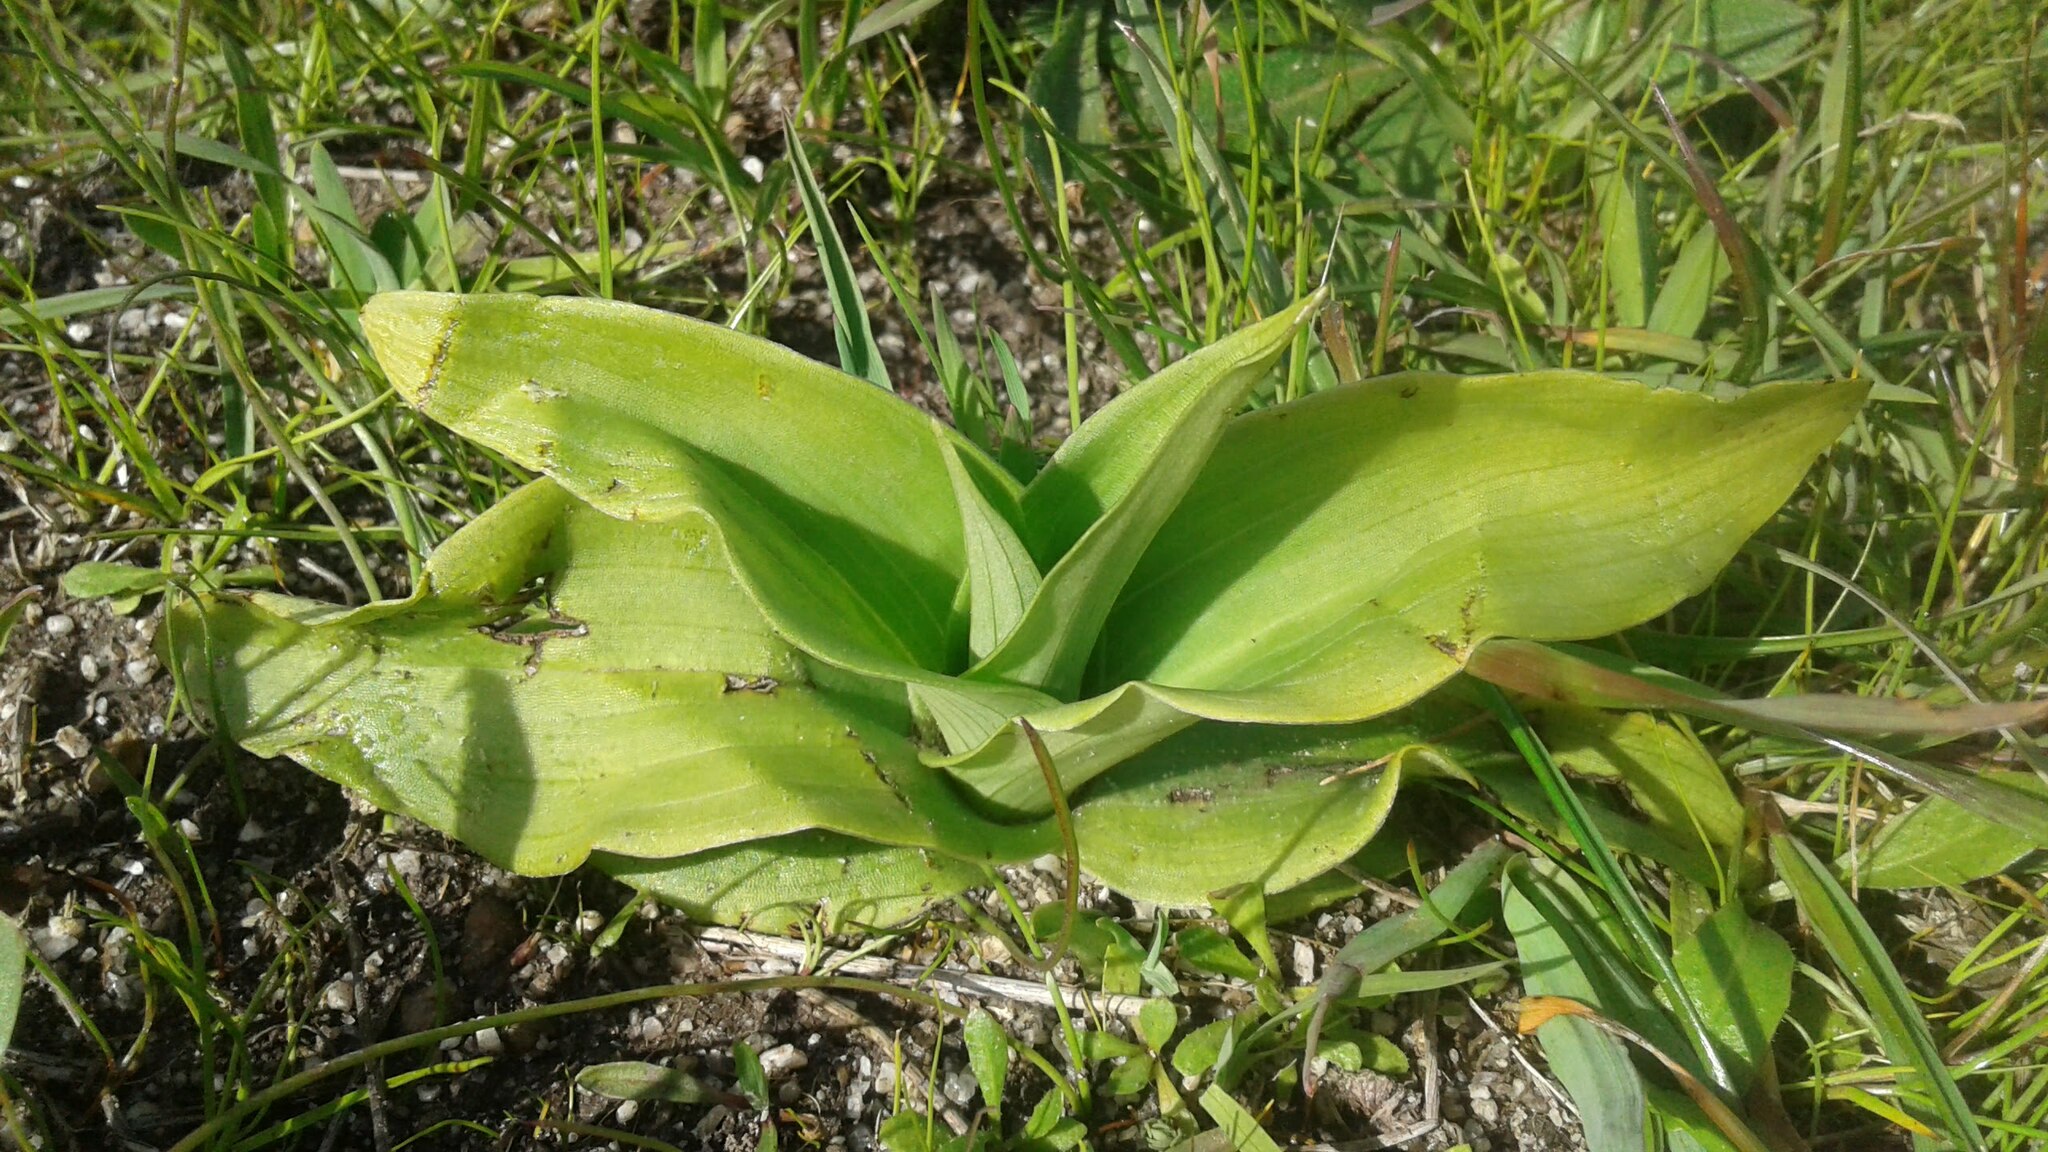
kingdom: Plantae
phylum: Tracheophyta
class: Liliopsida
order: Asparagales
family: Orchidaceae
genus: Satyrium
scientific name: Satyrium ligulatum
